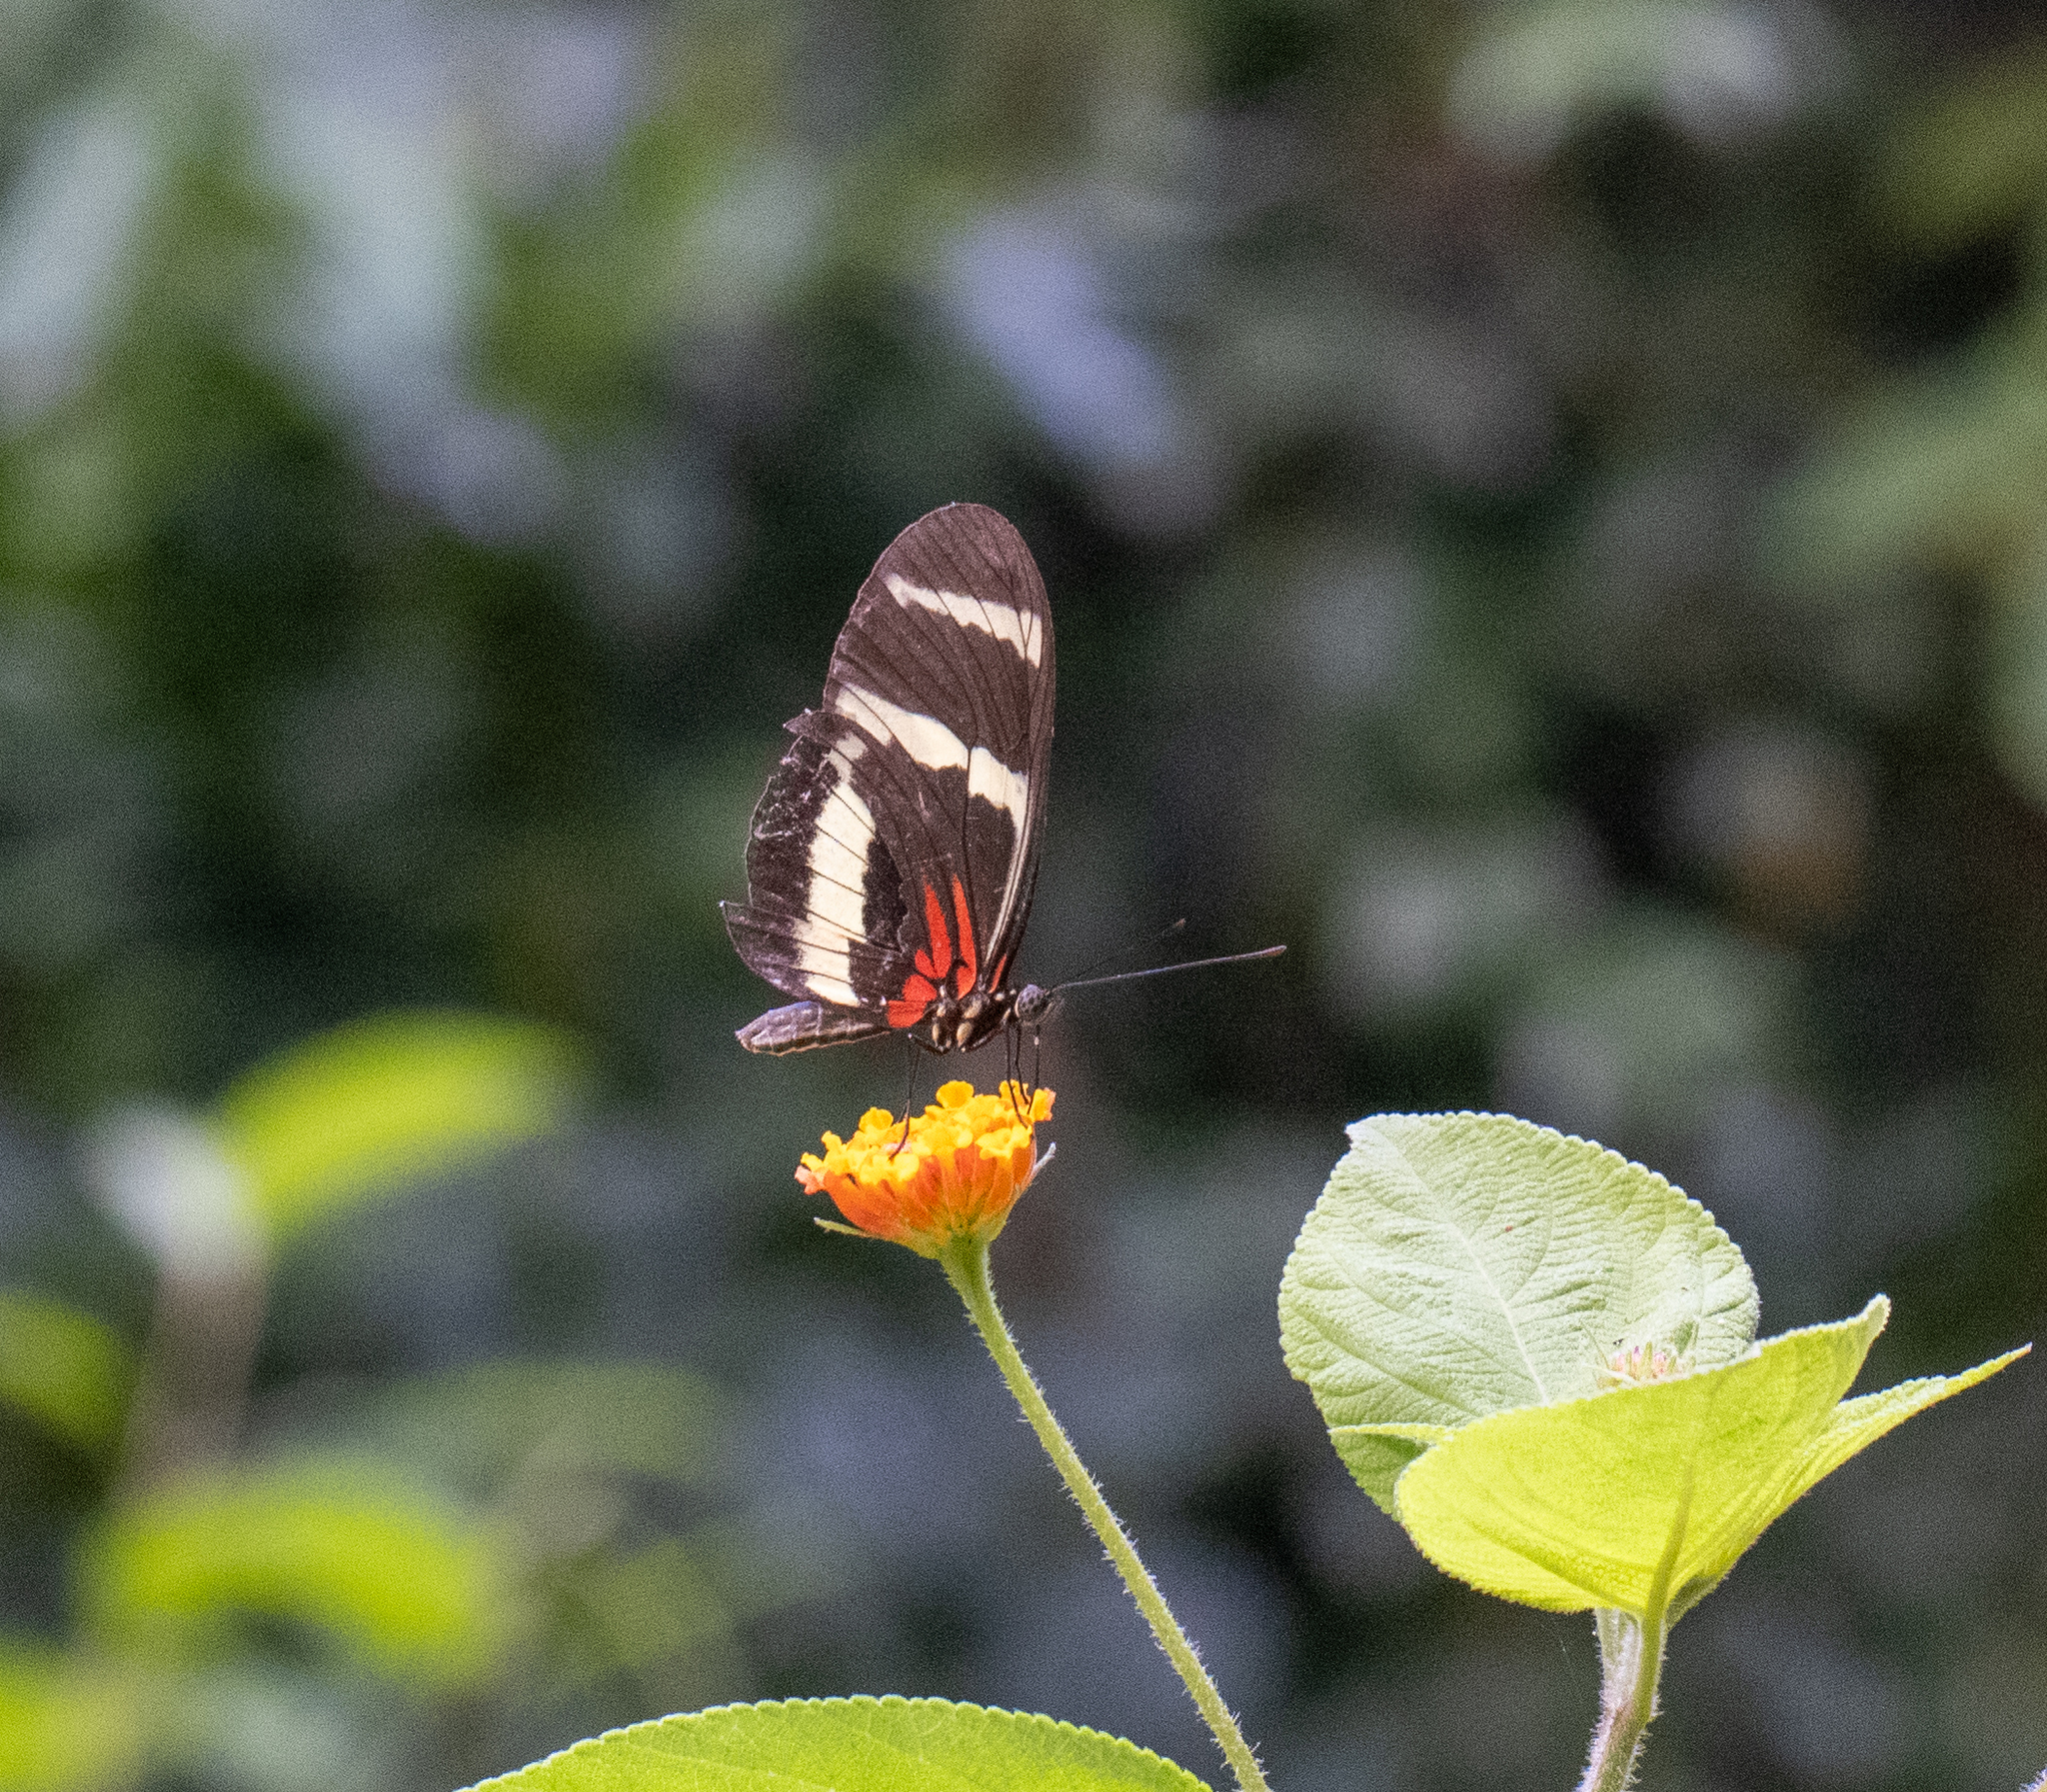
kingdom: Animalia
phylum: Arthropoda
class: Insecta
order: Lepidoptera
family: Nymphalidae
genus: Heliconius
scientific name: Heliconius hewitsoni
